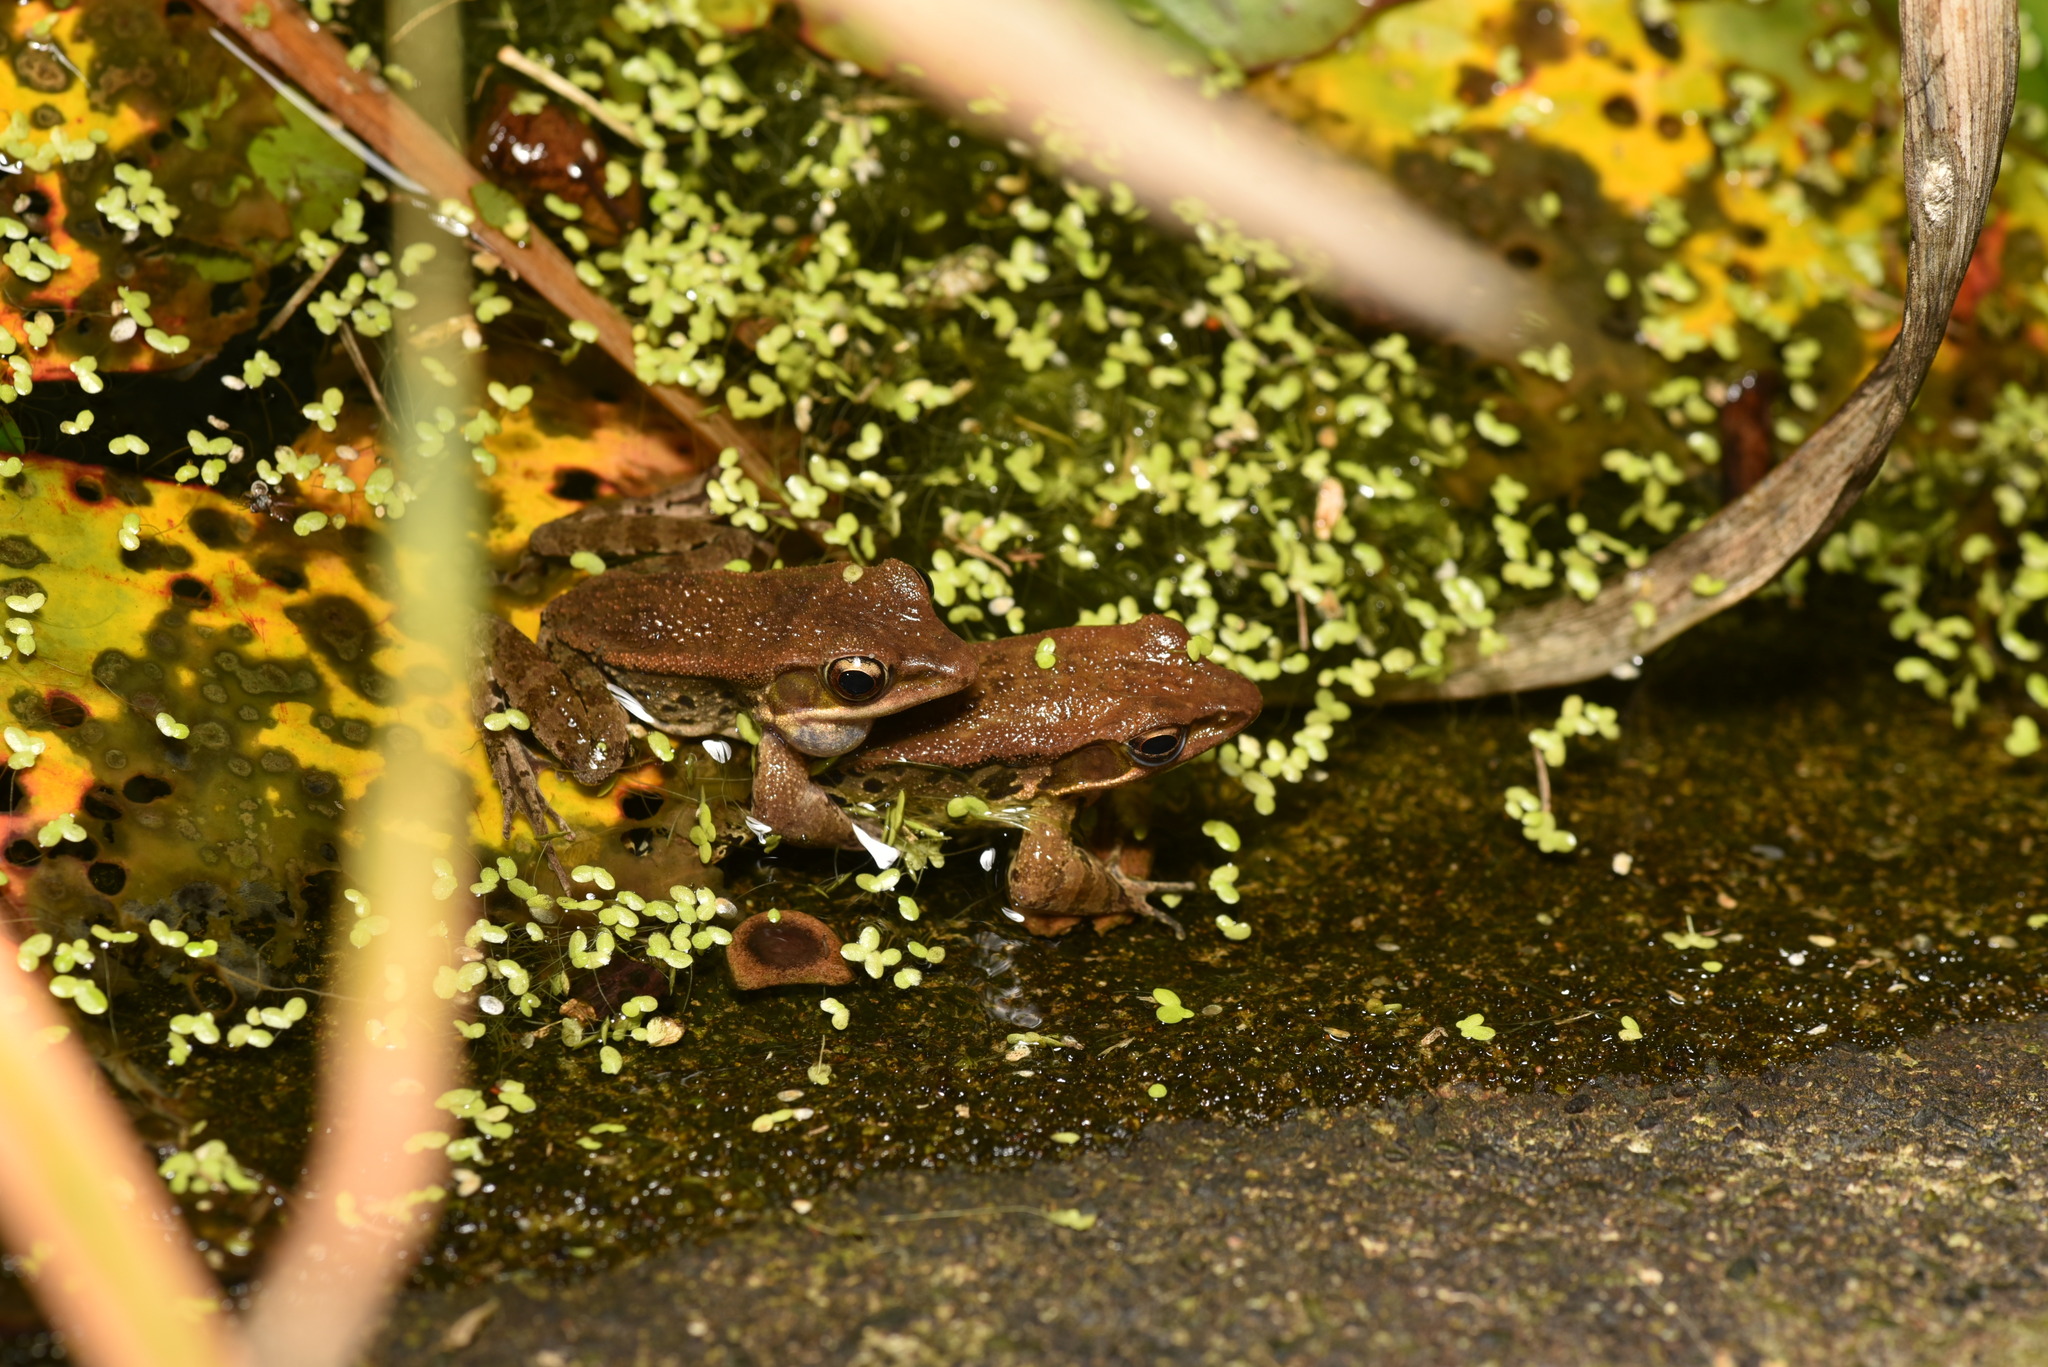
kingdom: Animalia
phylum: Chordata
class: Amphibia
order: Anura
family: Ranidae
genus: Hylarana
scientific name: Hylarana latouchii
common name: Broad-folded frog
